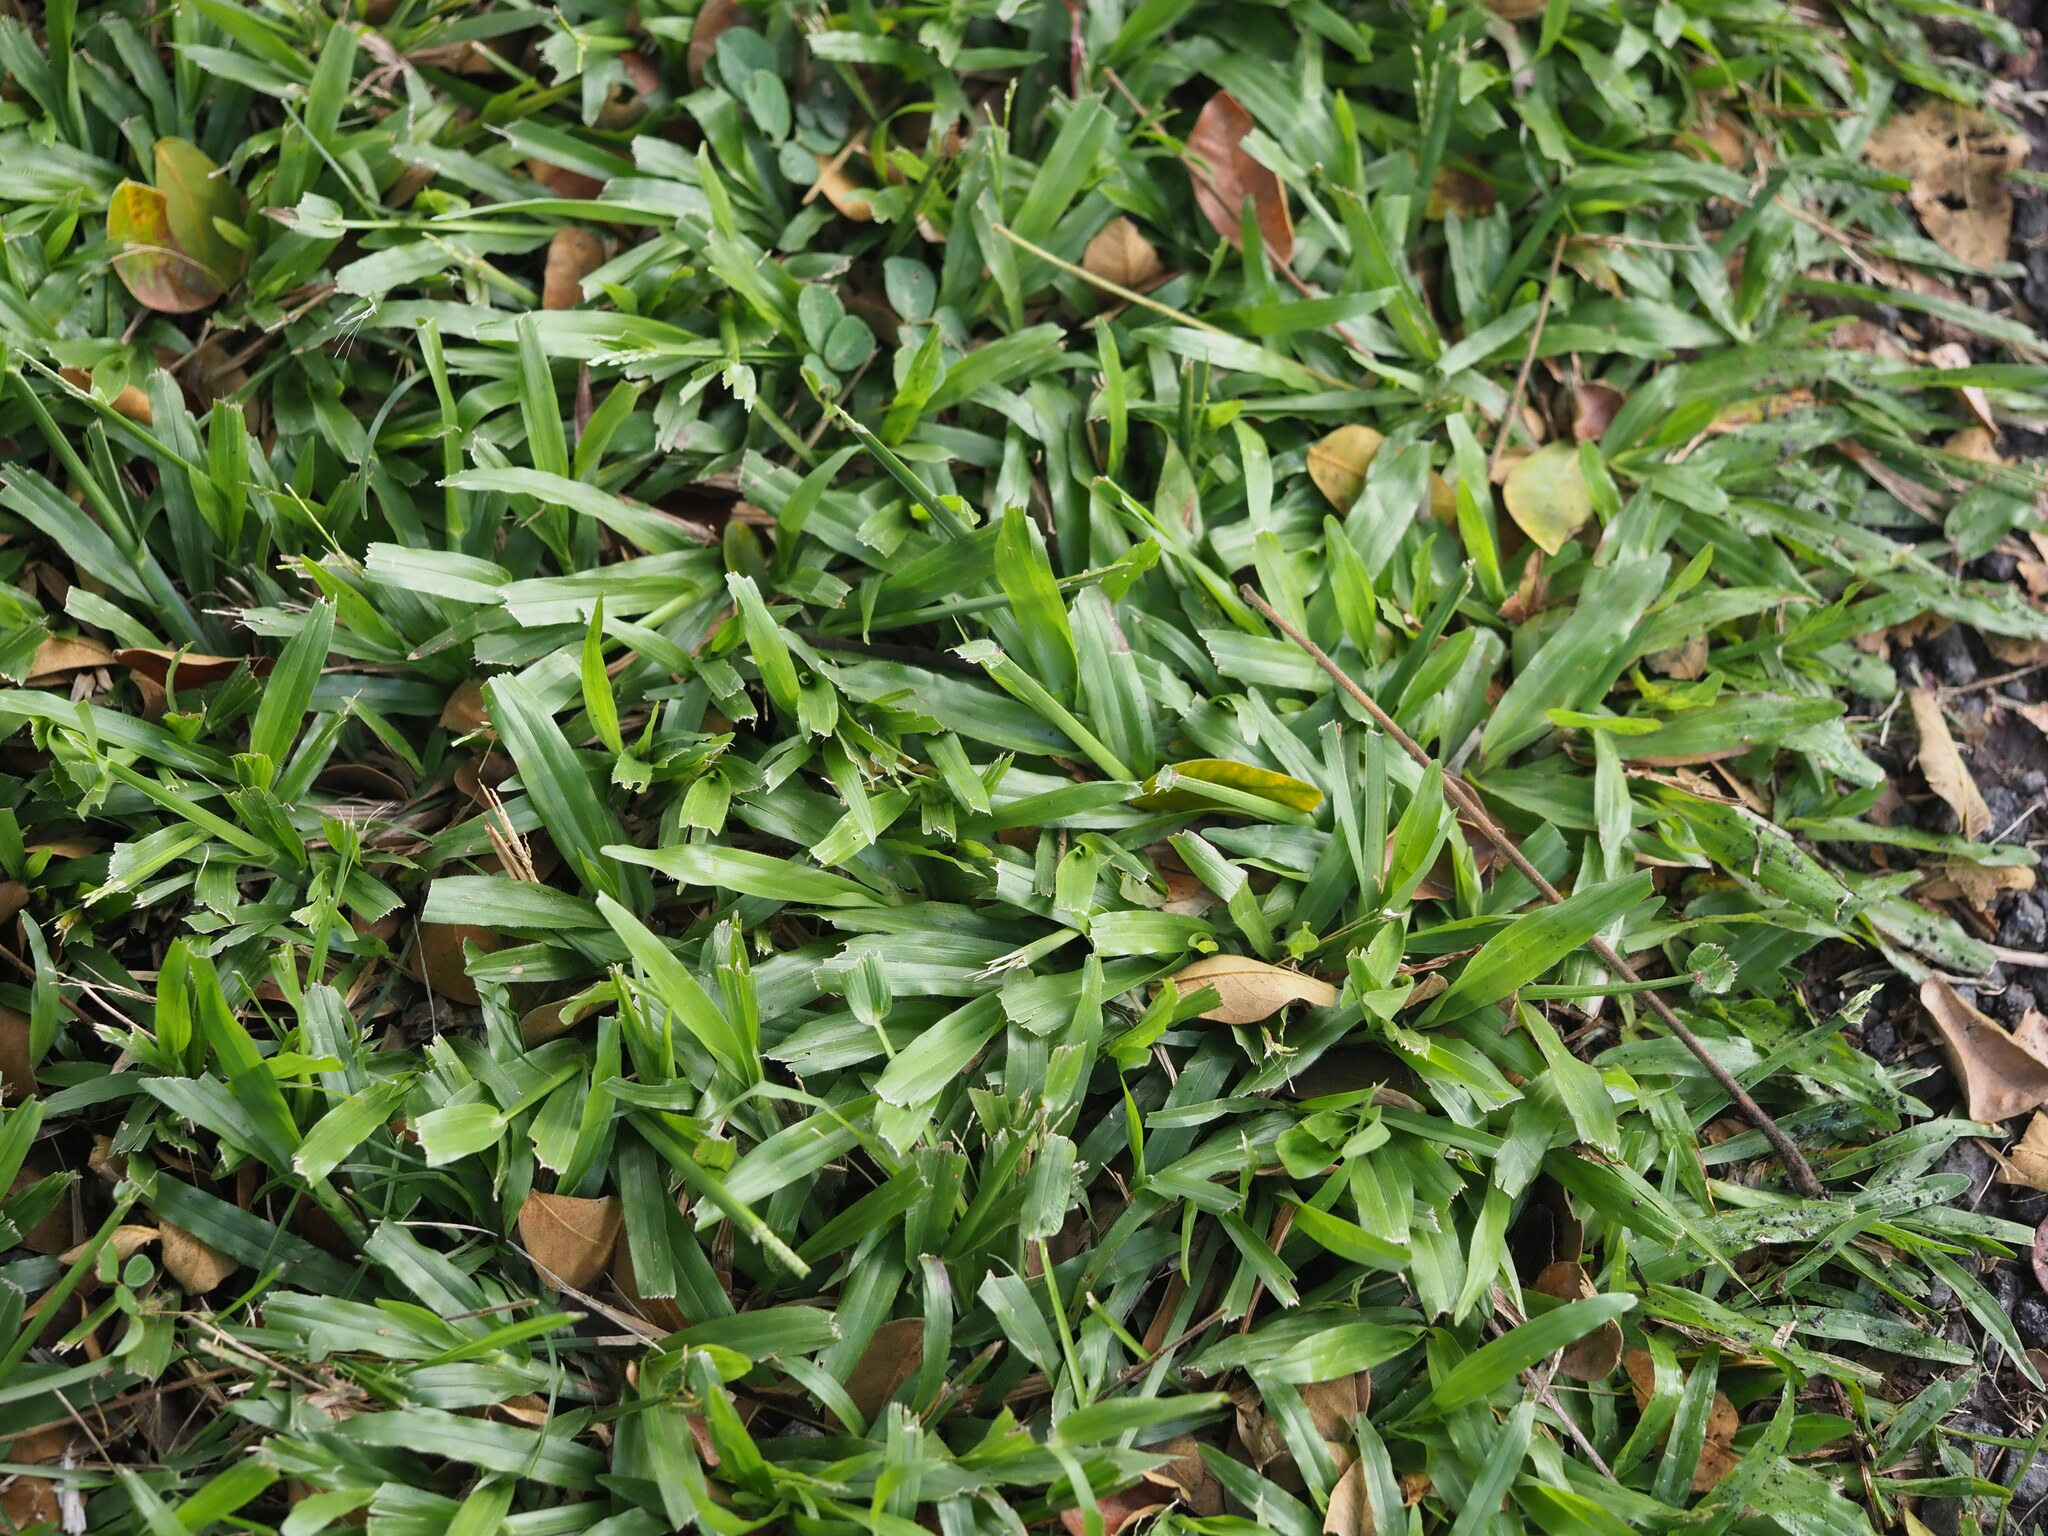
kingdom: Plantae
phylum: Tracheophyta
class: Liliopsida
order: Poales
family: Poaceae
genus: Axonopus
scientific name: Axonopus compressus
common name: American carpet grass
